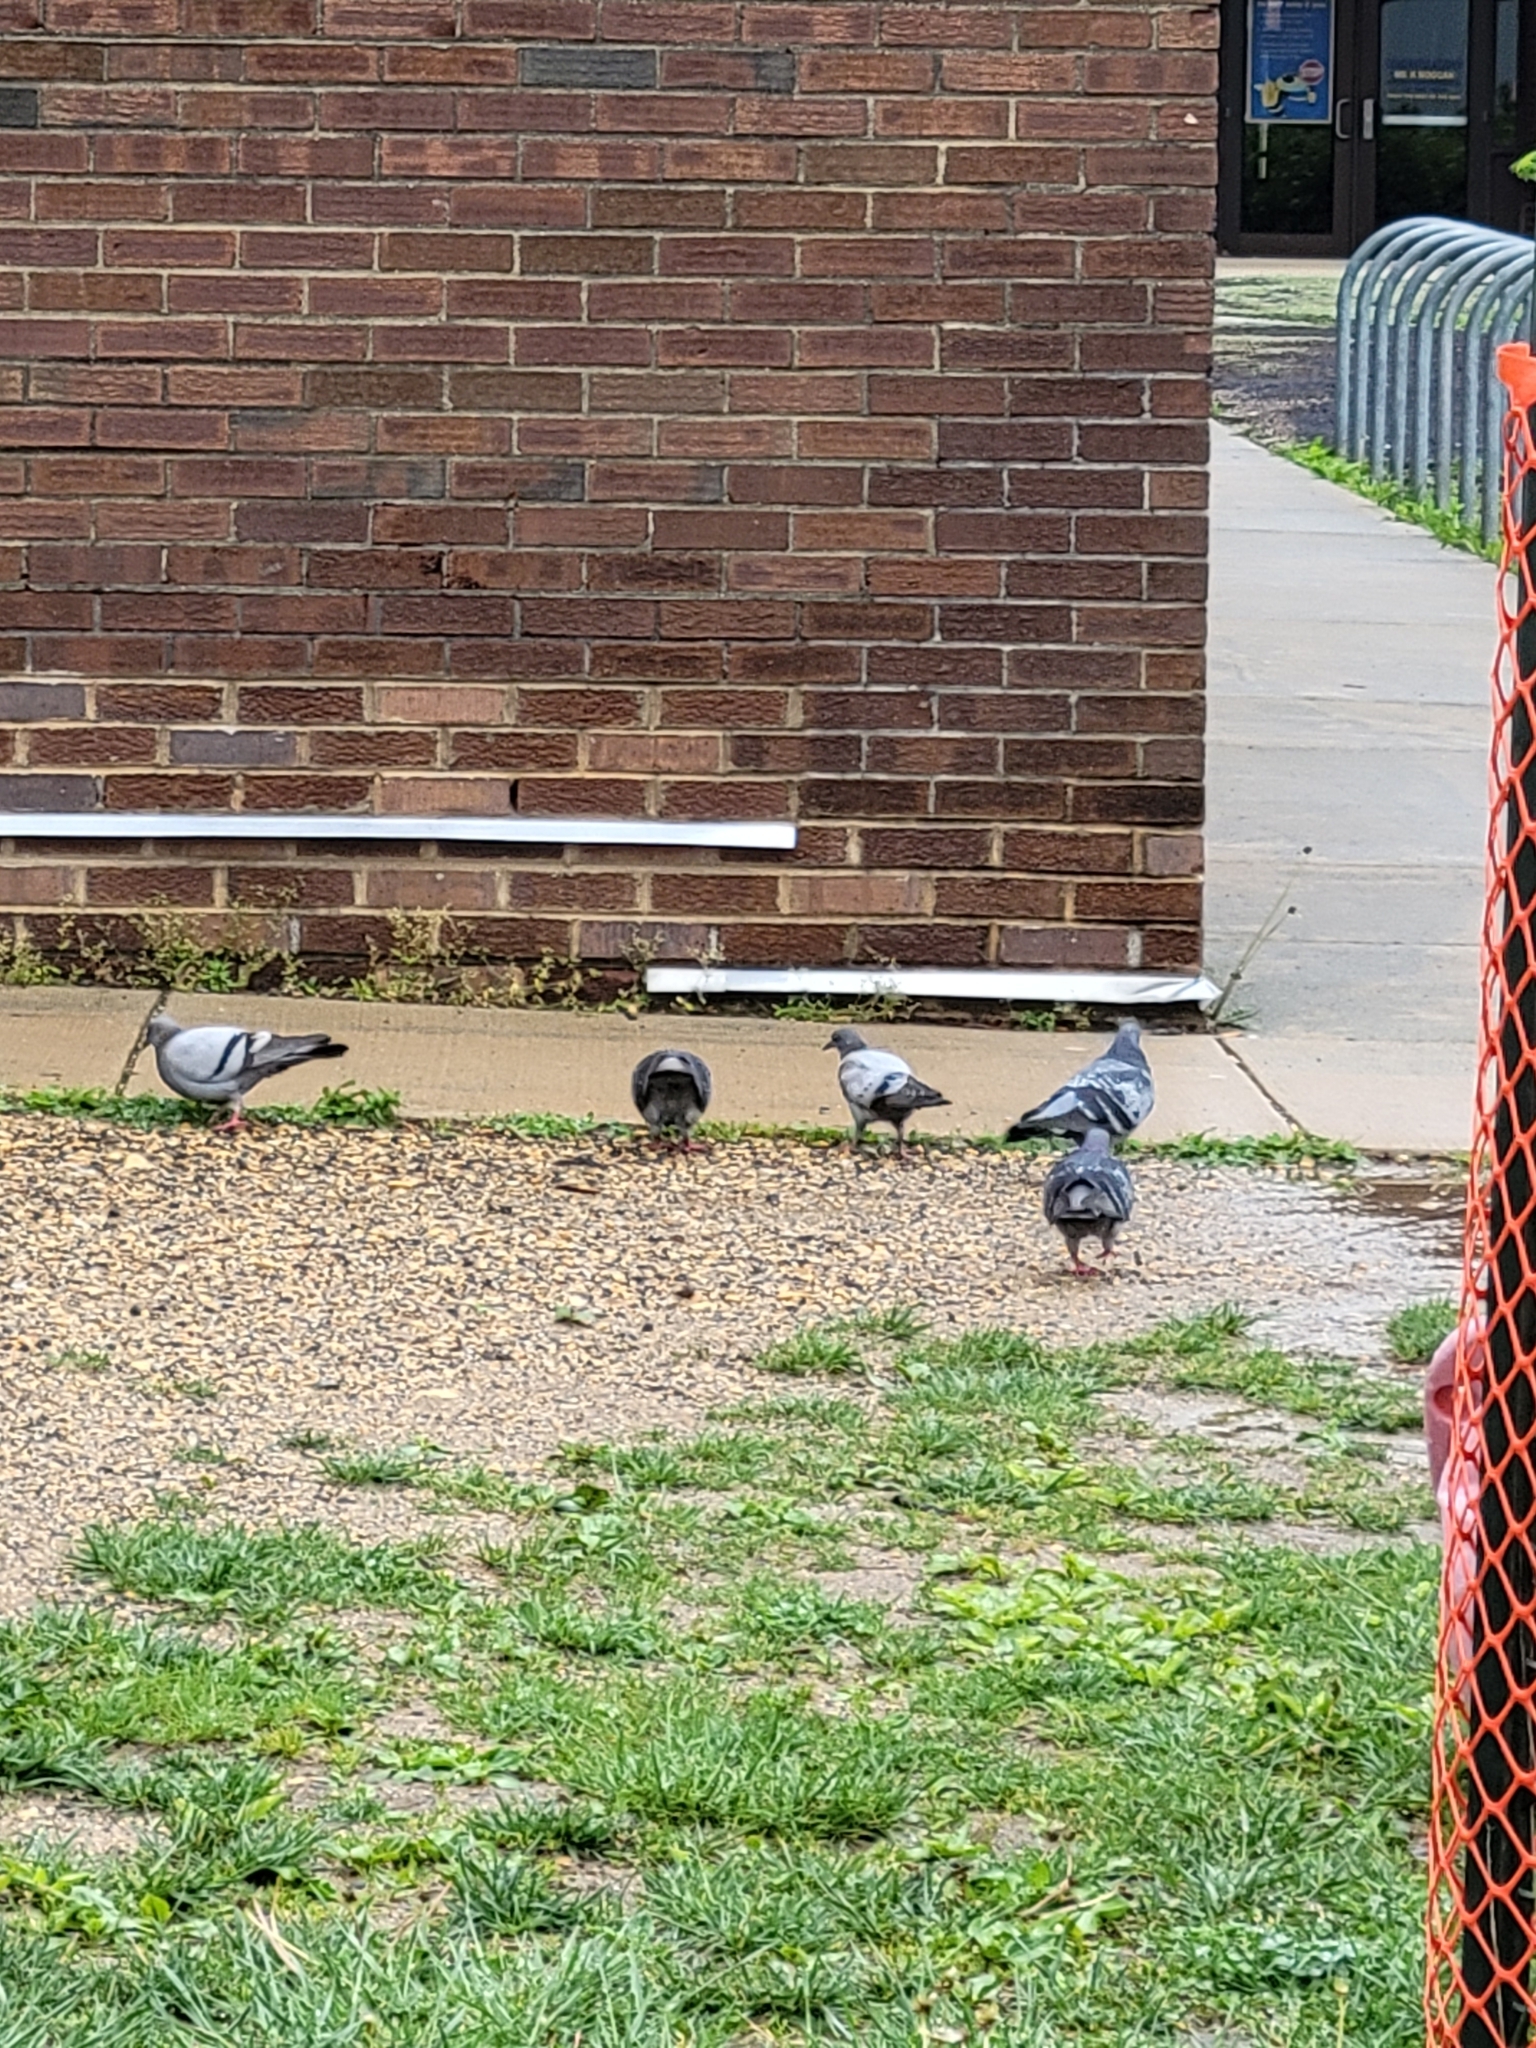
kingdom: Animalia
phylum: Chordata
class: Aves
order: Columbiformes
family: Columbidae
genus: Columba
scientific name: Columba livia
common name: Rock pigeon
